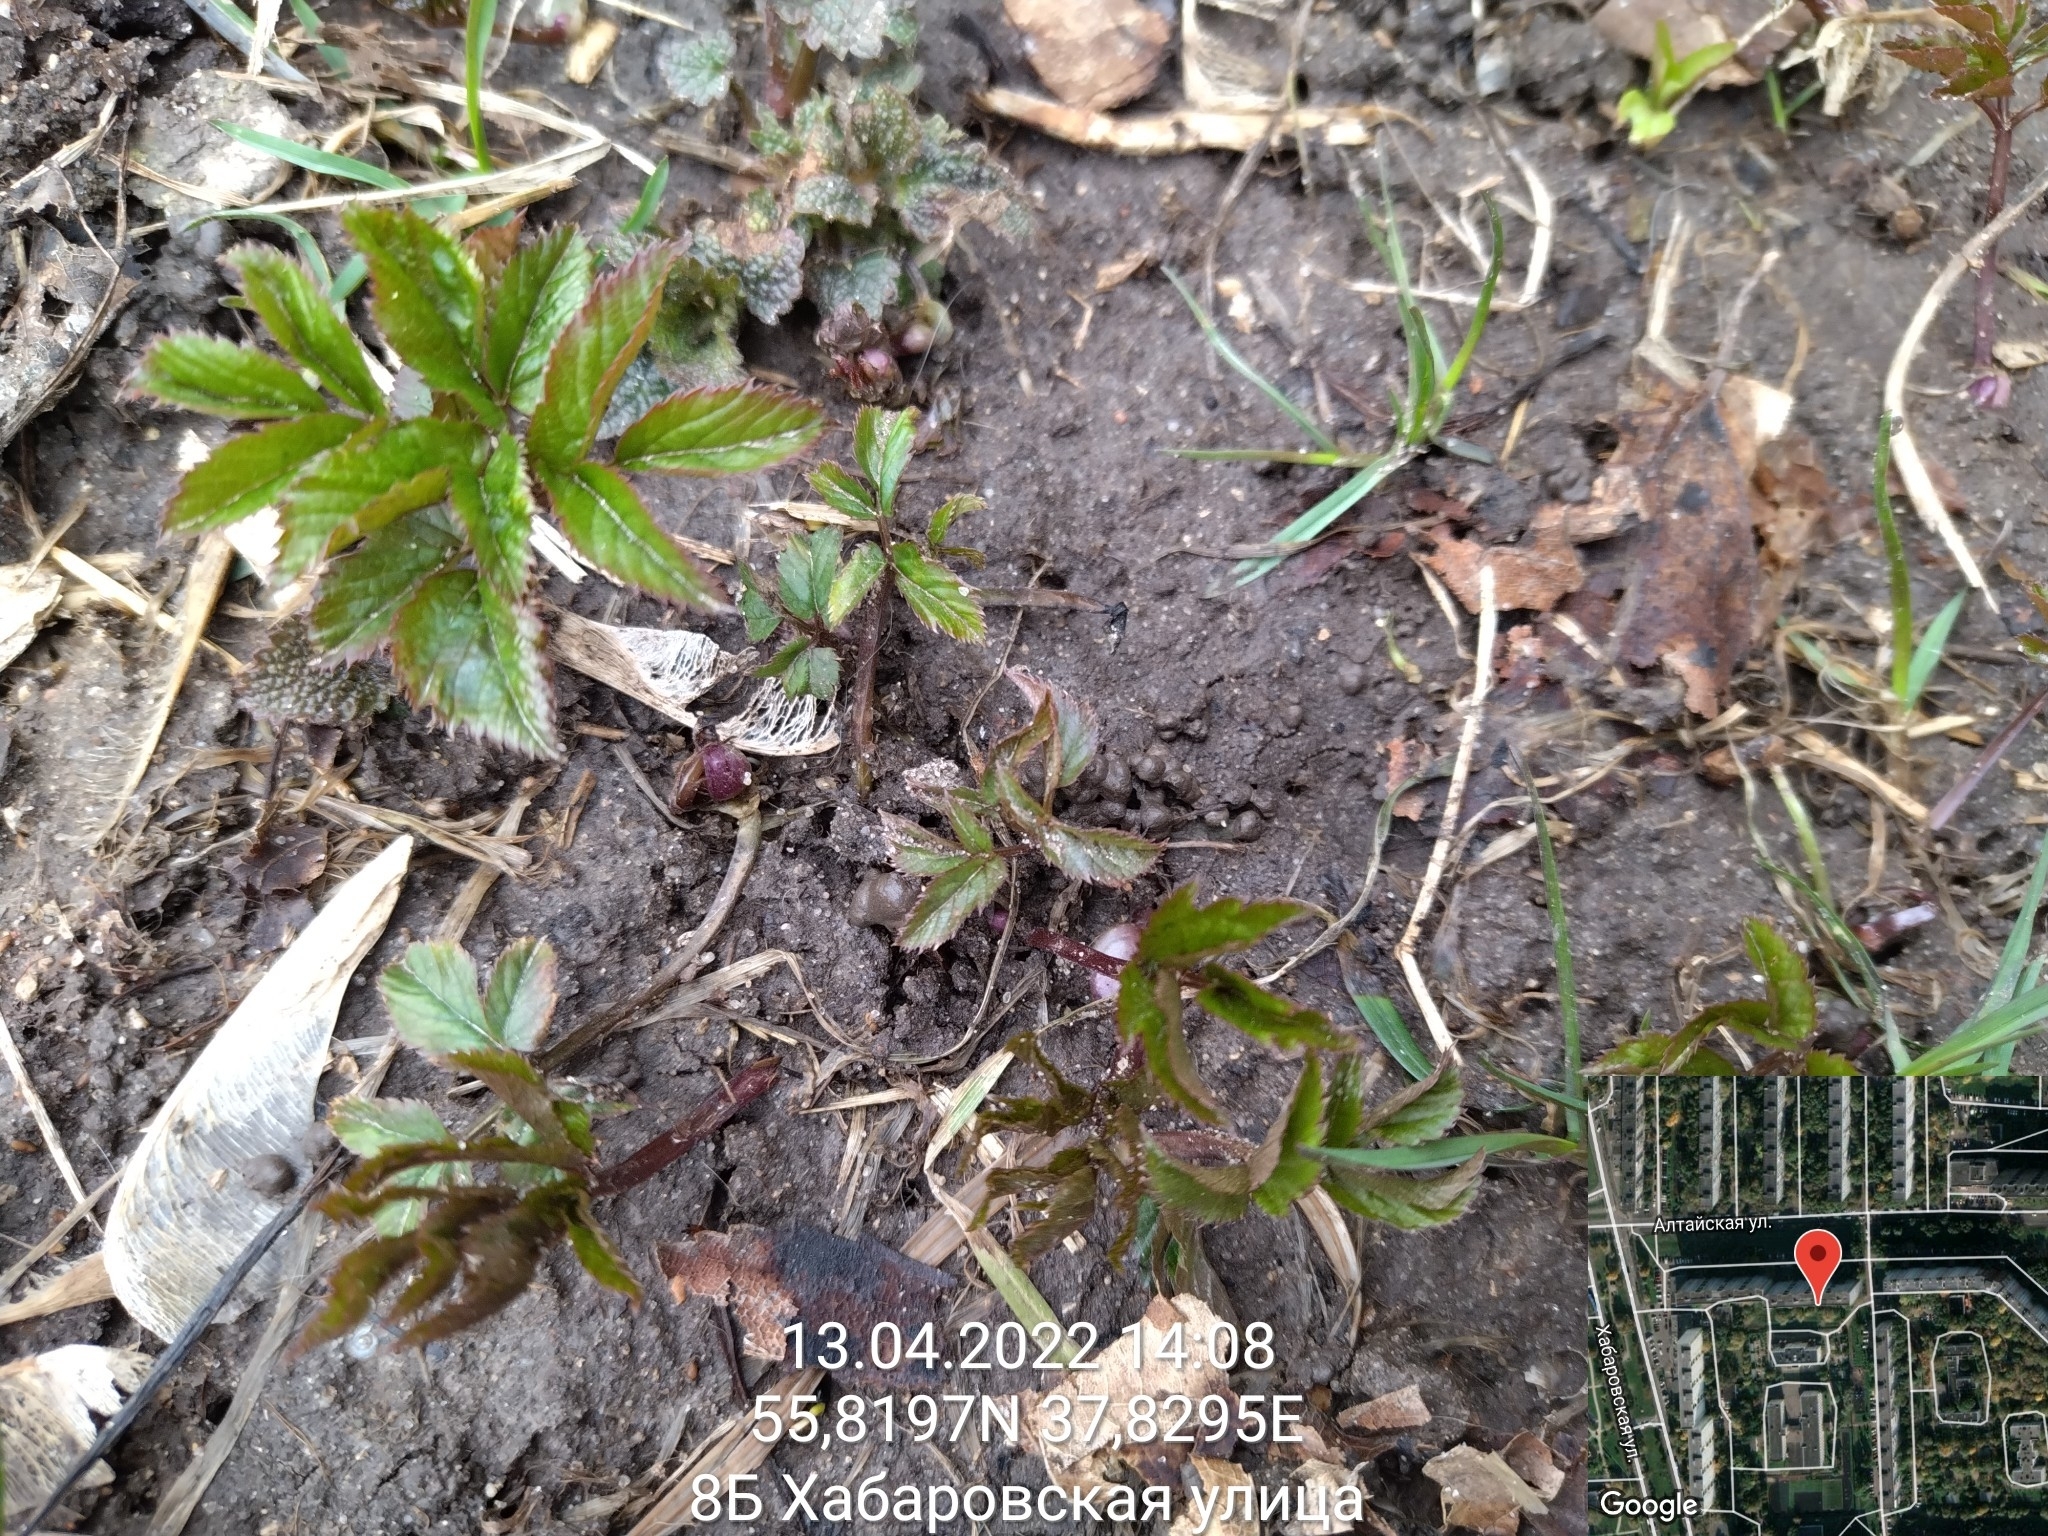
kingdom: Plantae
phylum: Tracheophyta
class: Magnoliopsida
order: Apiales
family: Apiaceae
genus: Aegopodium
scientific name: Aegopodium podagraria
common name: Ground-elder
